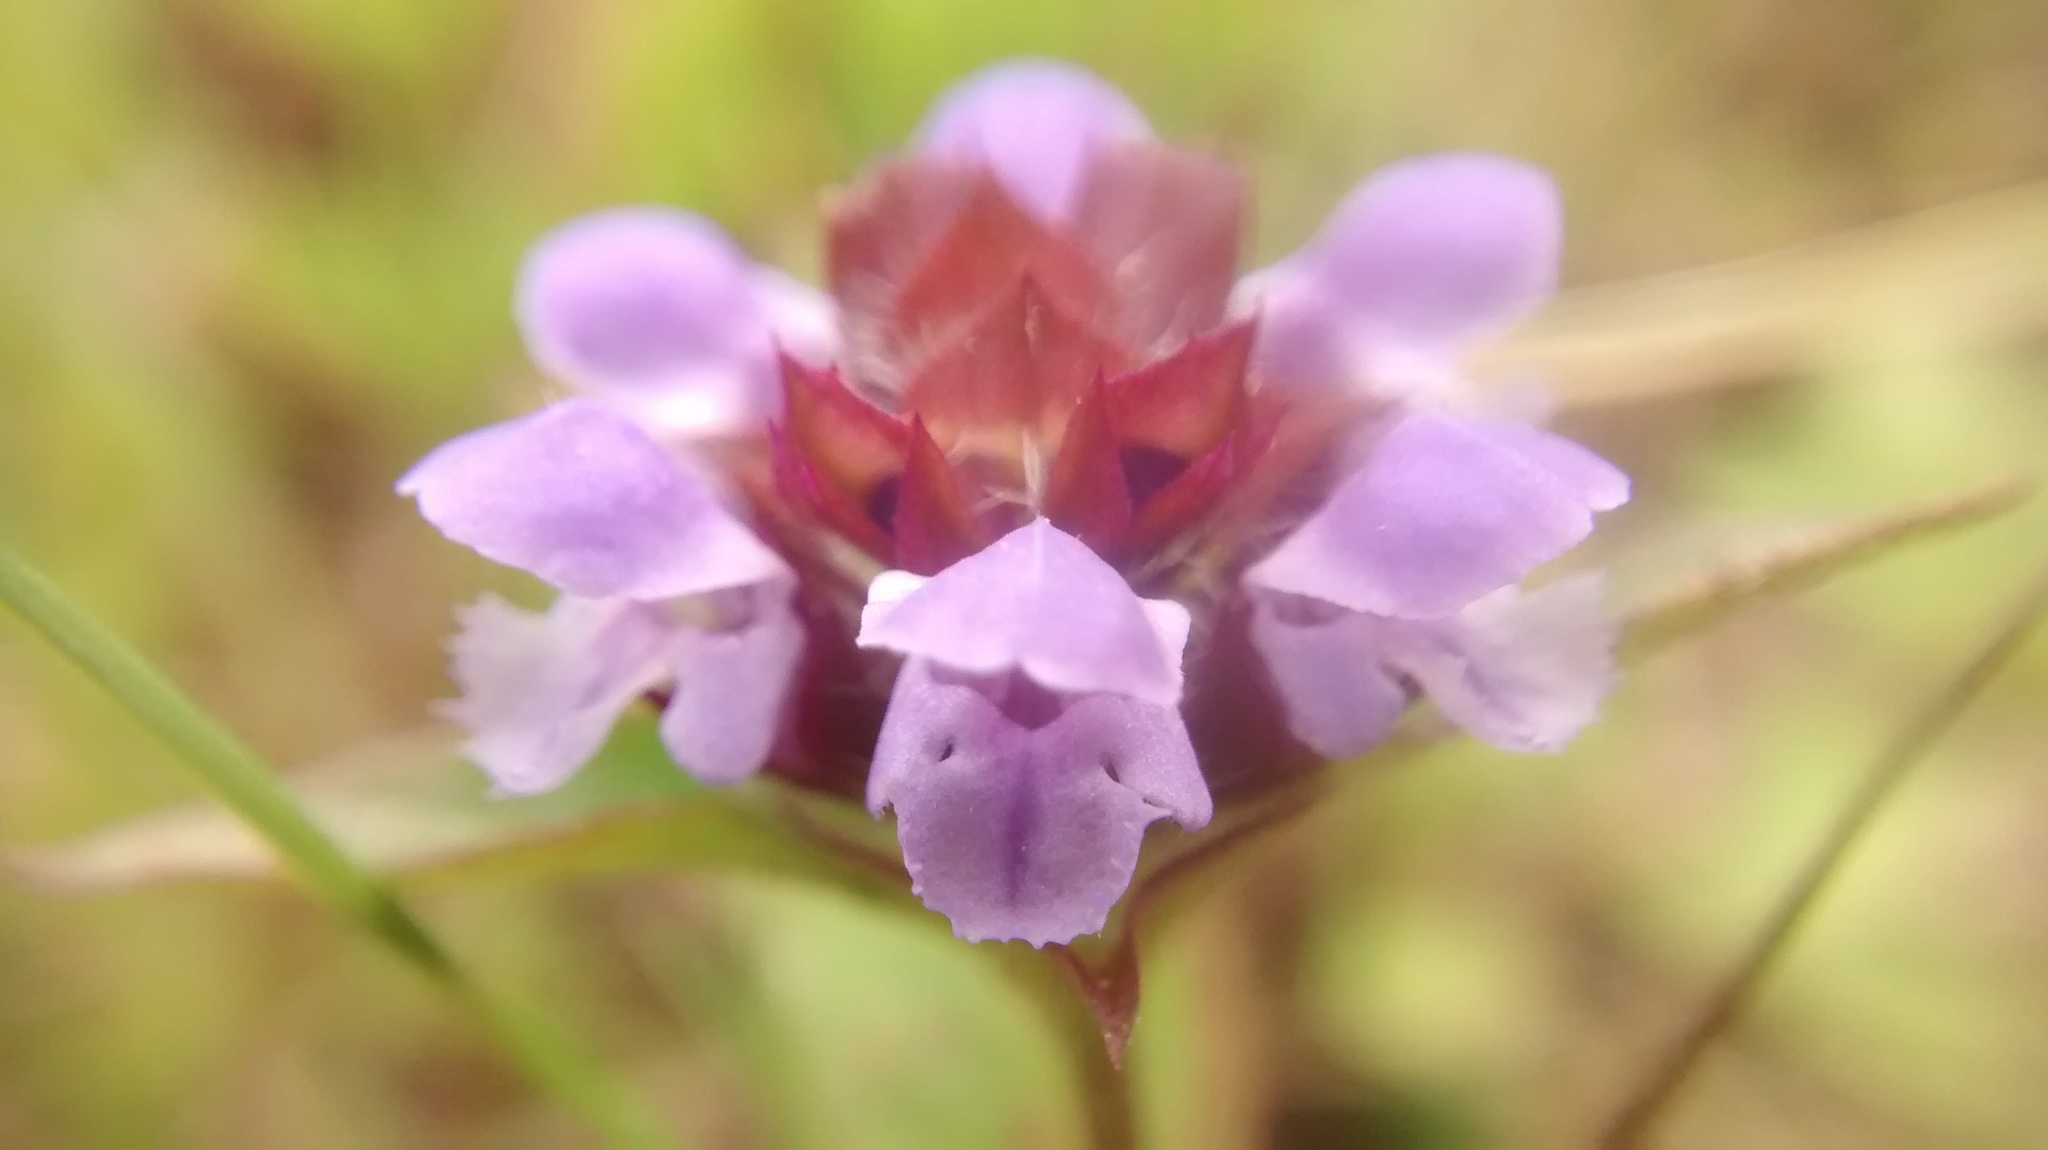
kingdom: Plantae
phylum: Tracheophyta
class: Magnoliopsida
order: Lamiales
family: Lamiaceae
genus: Prunella
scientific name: Prunella vulgaris
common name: Heal-all
